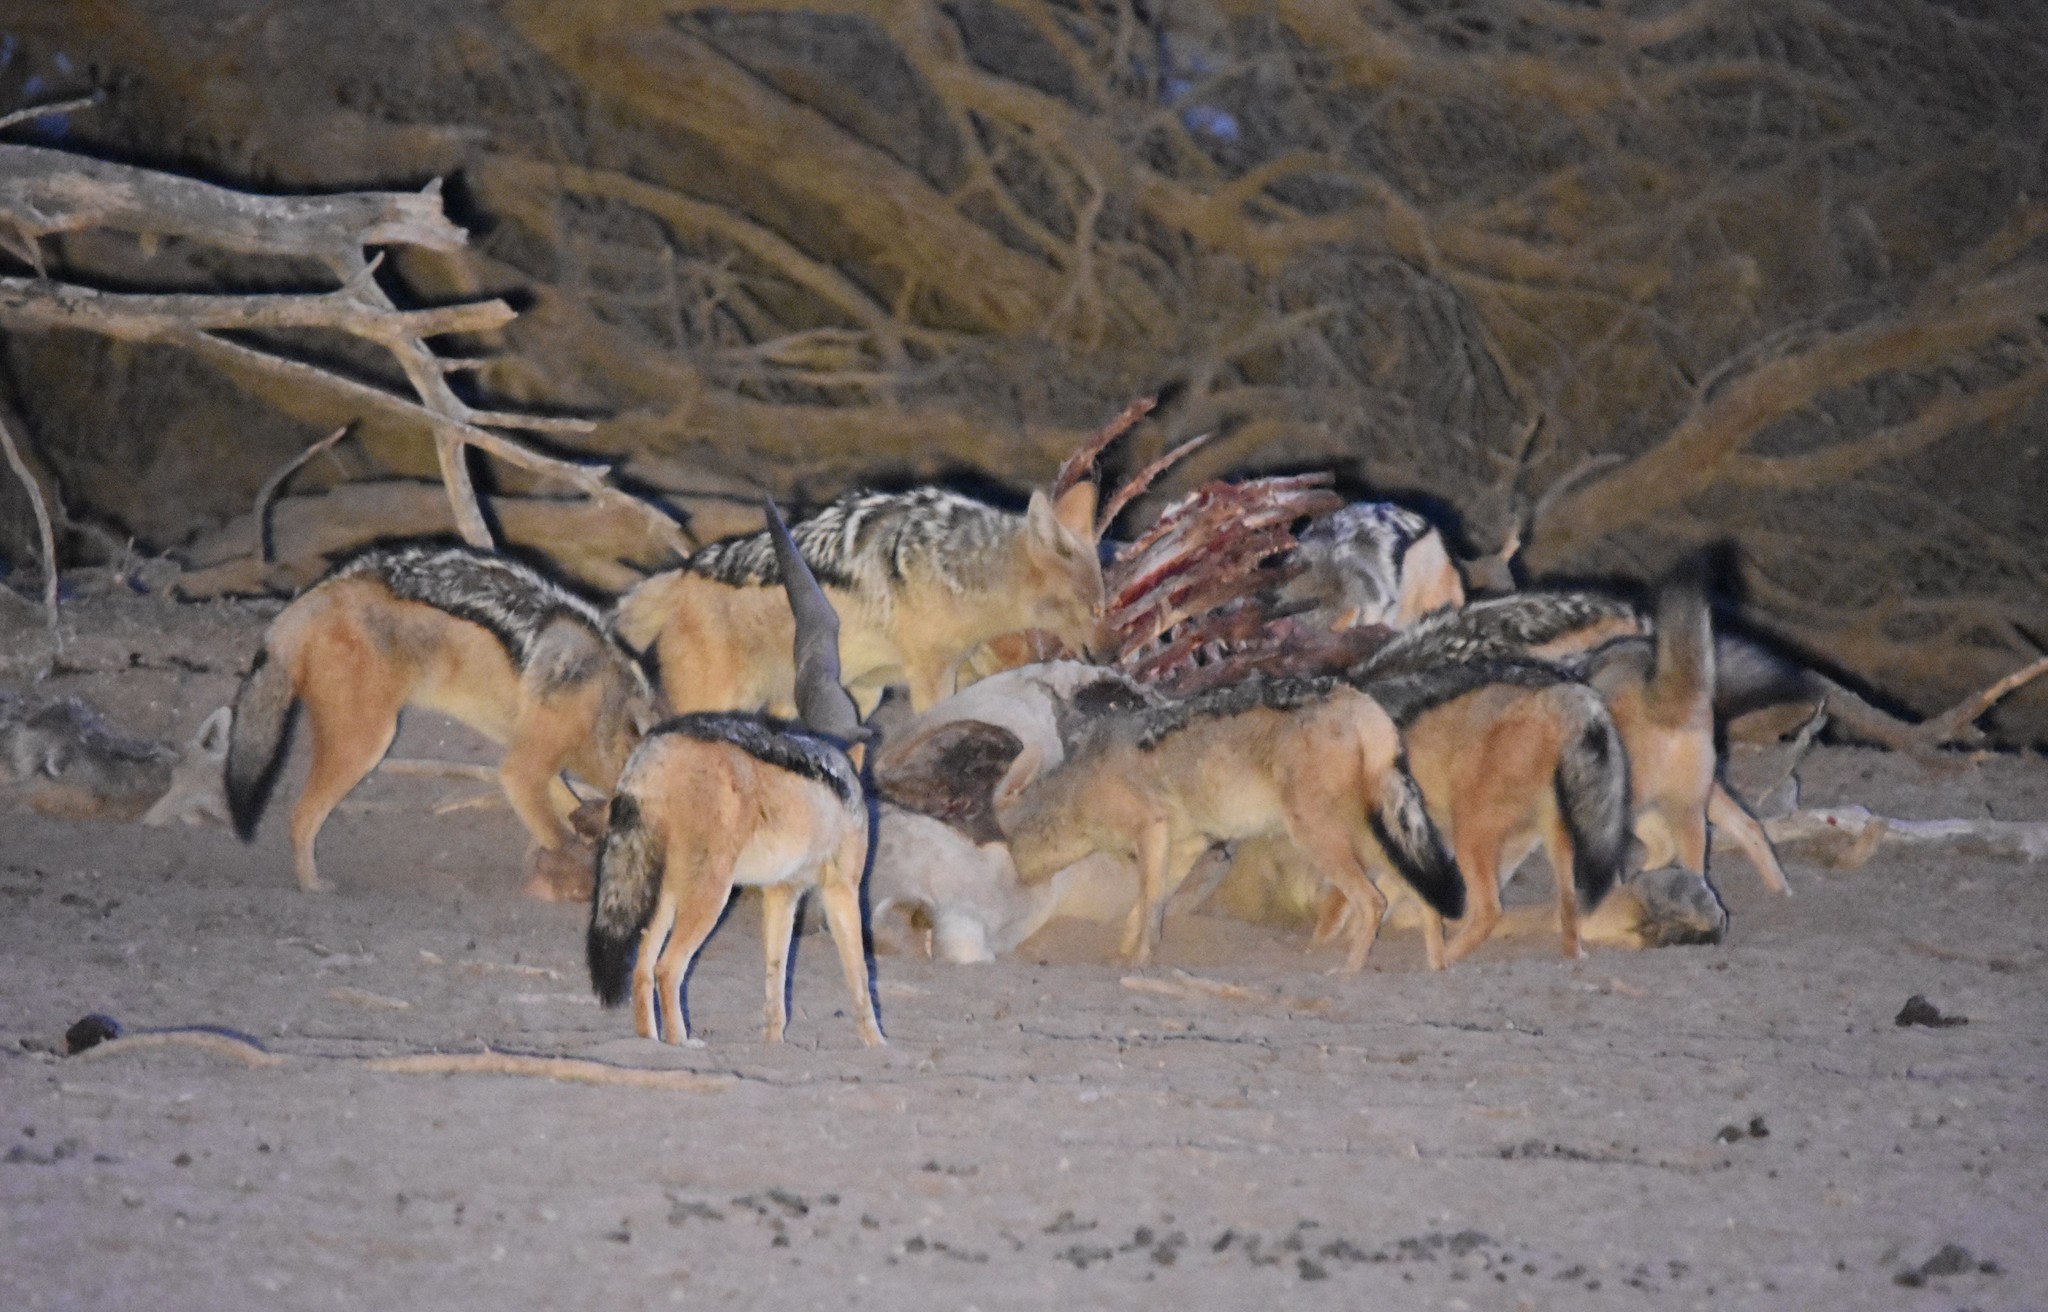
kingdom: Animalia
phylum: Chordata
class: Mammalia
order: Carnivora
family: Canidae
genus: Lupulella
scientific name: Lupulella
